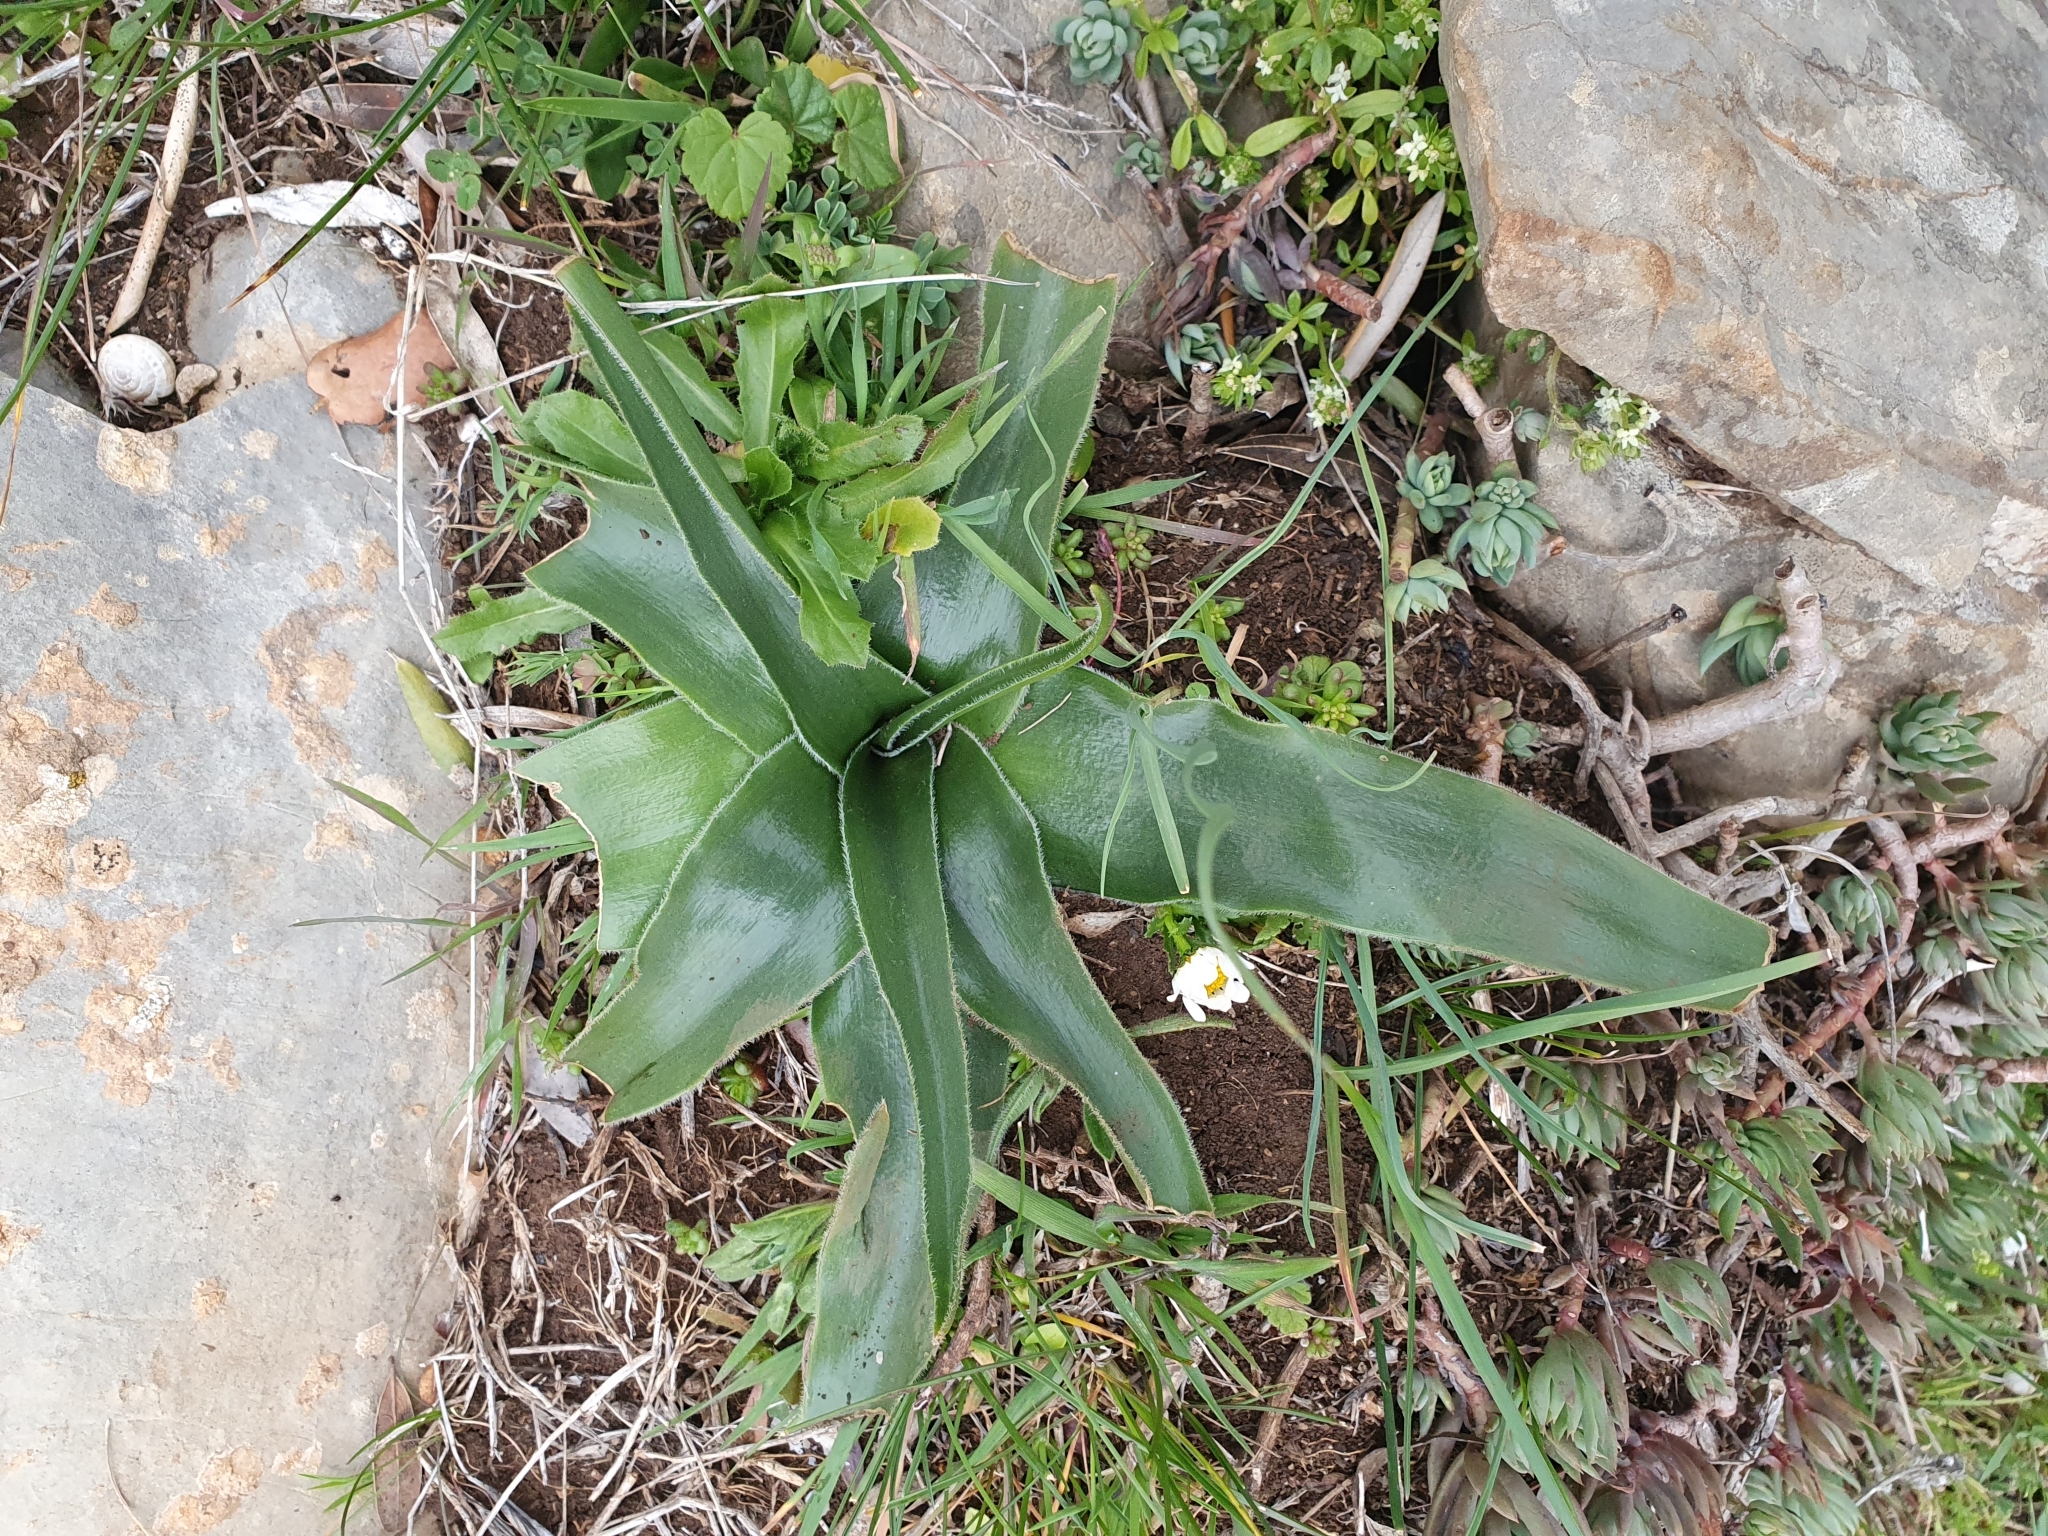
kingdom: Plantae
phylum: Tracheophyta
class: Liliopsida
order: Asparagales
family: Asparagaceae
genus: Scilla
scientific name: Scilla peruviana
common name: Portuguese squill
